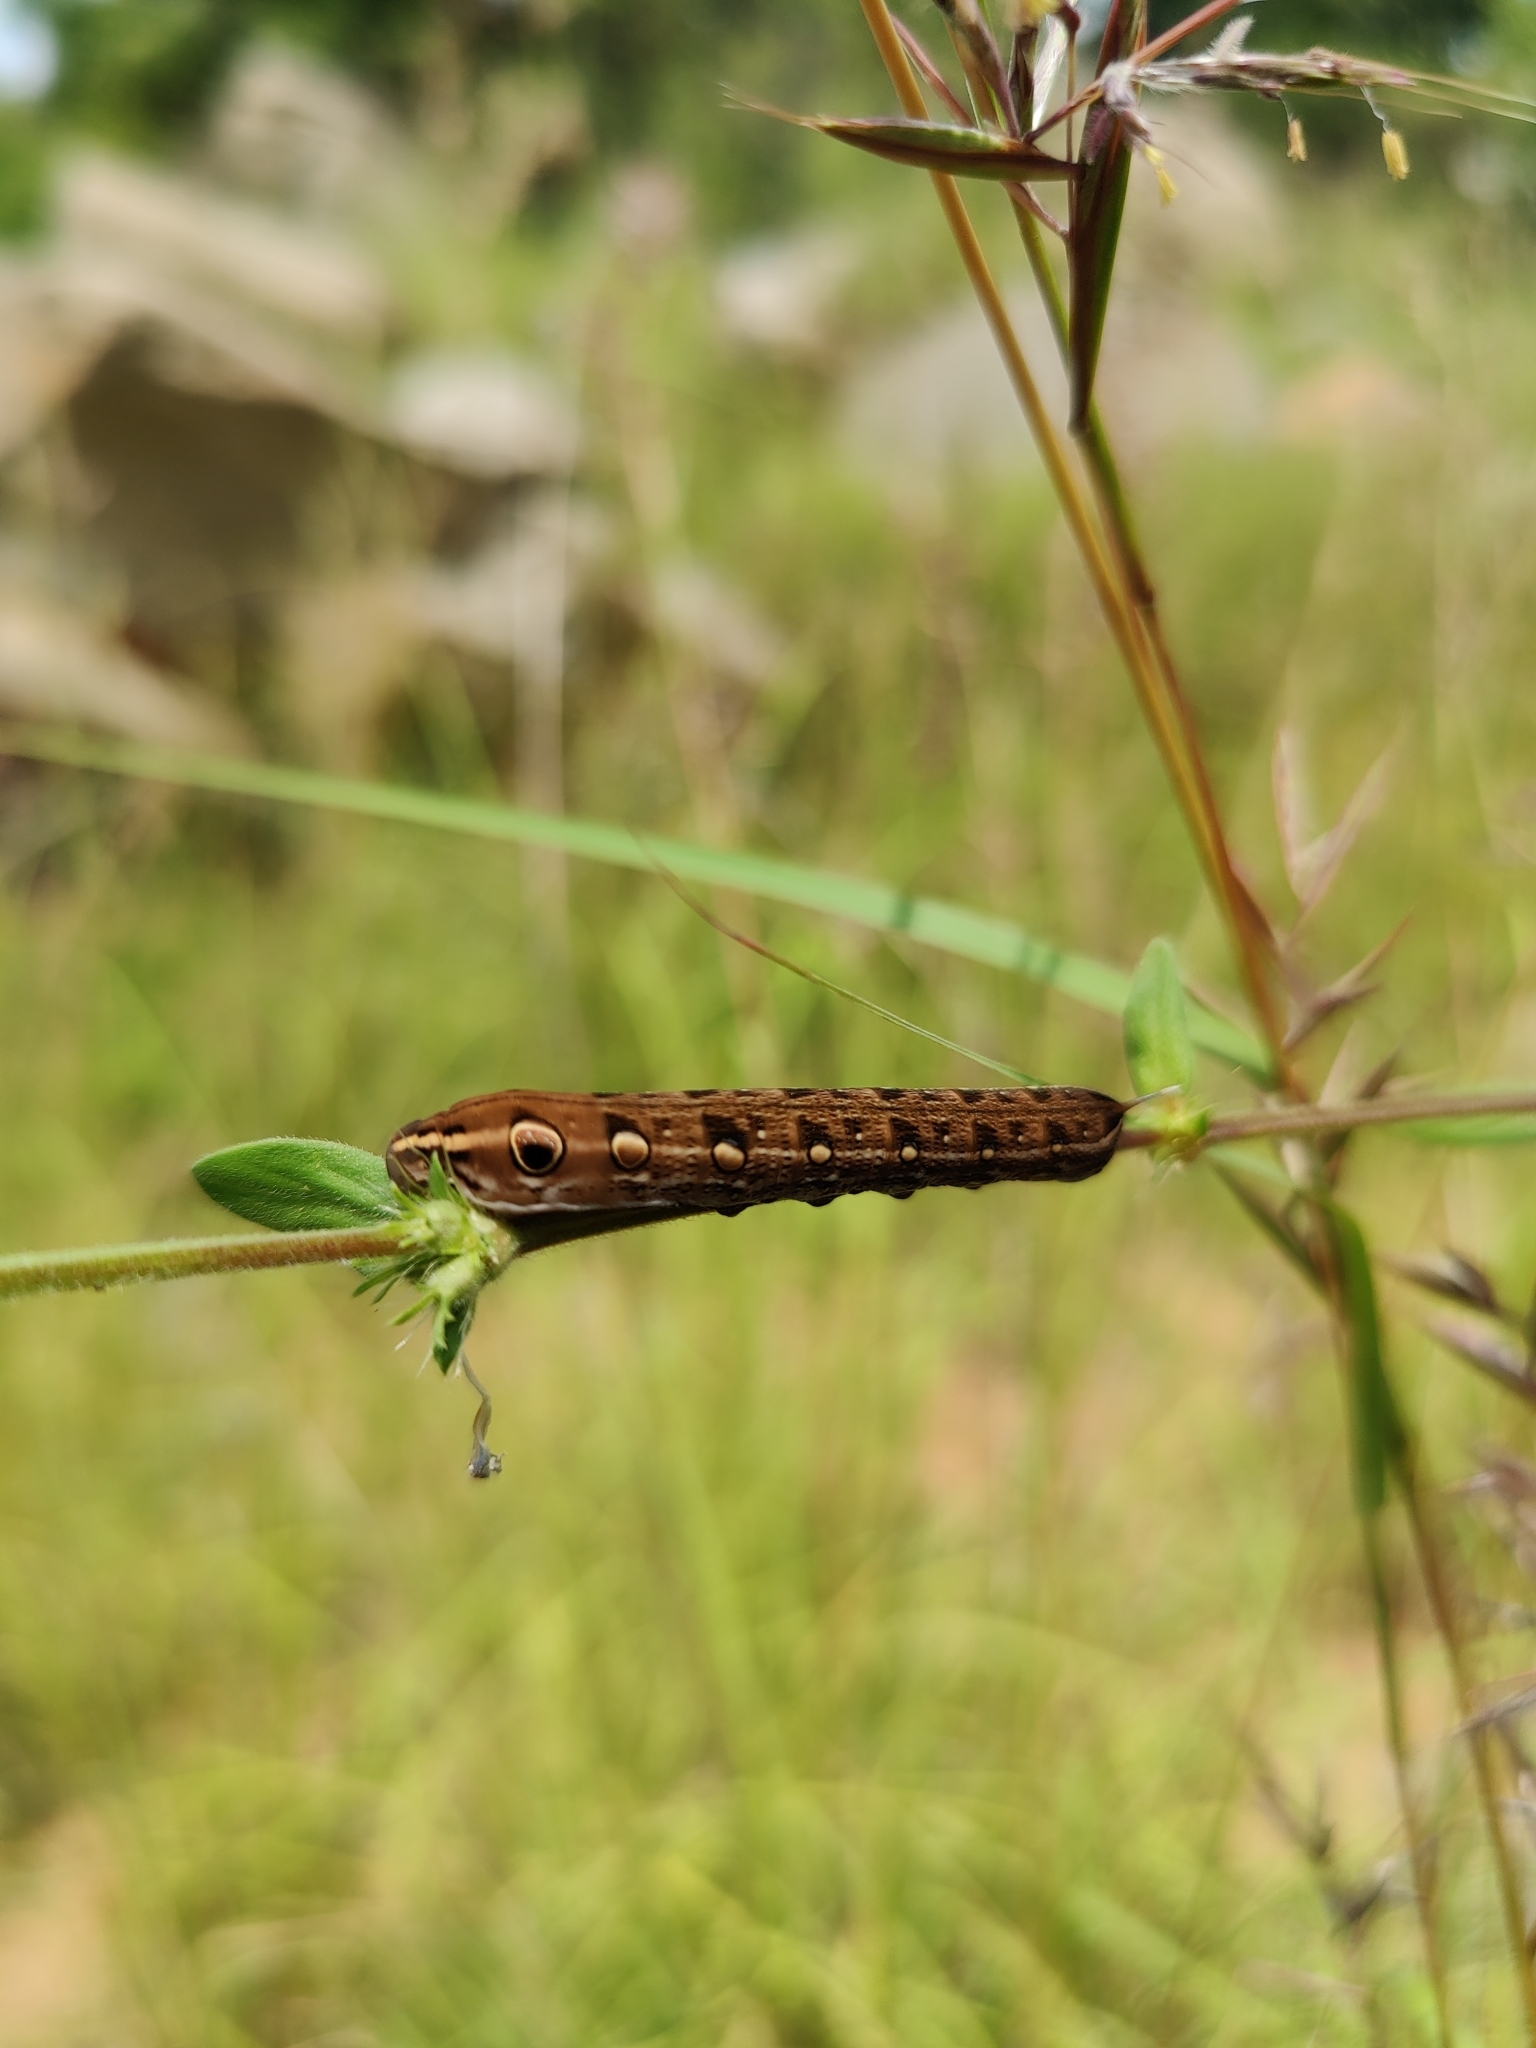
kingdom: Animalia
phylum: Arthropoda
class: Insecta
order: Lepidoptera
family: Sphingidae
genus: Hippotion
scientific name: Hippotion rosetta
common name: Vine hawk moth
